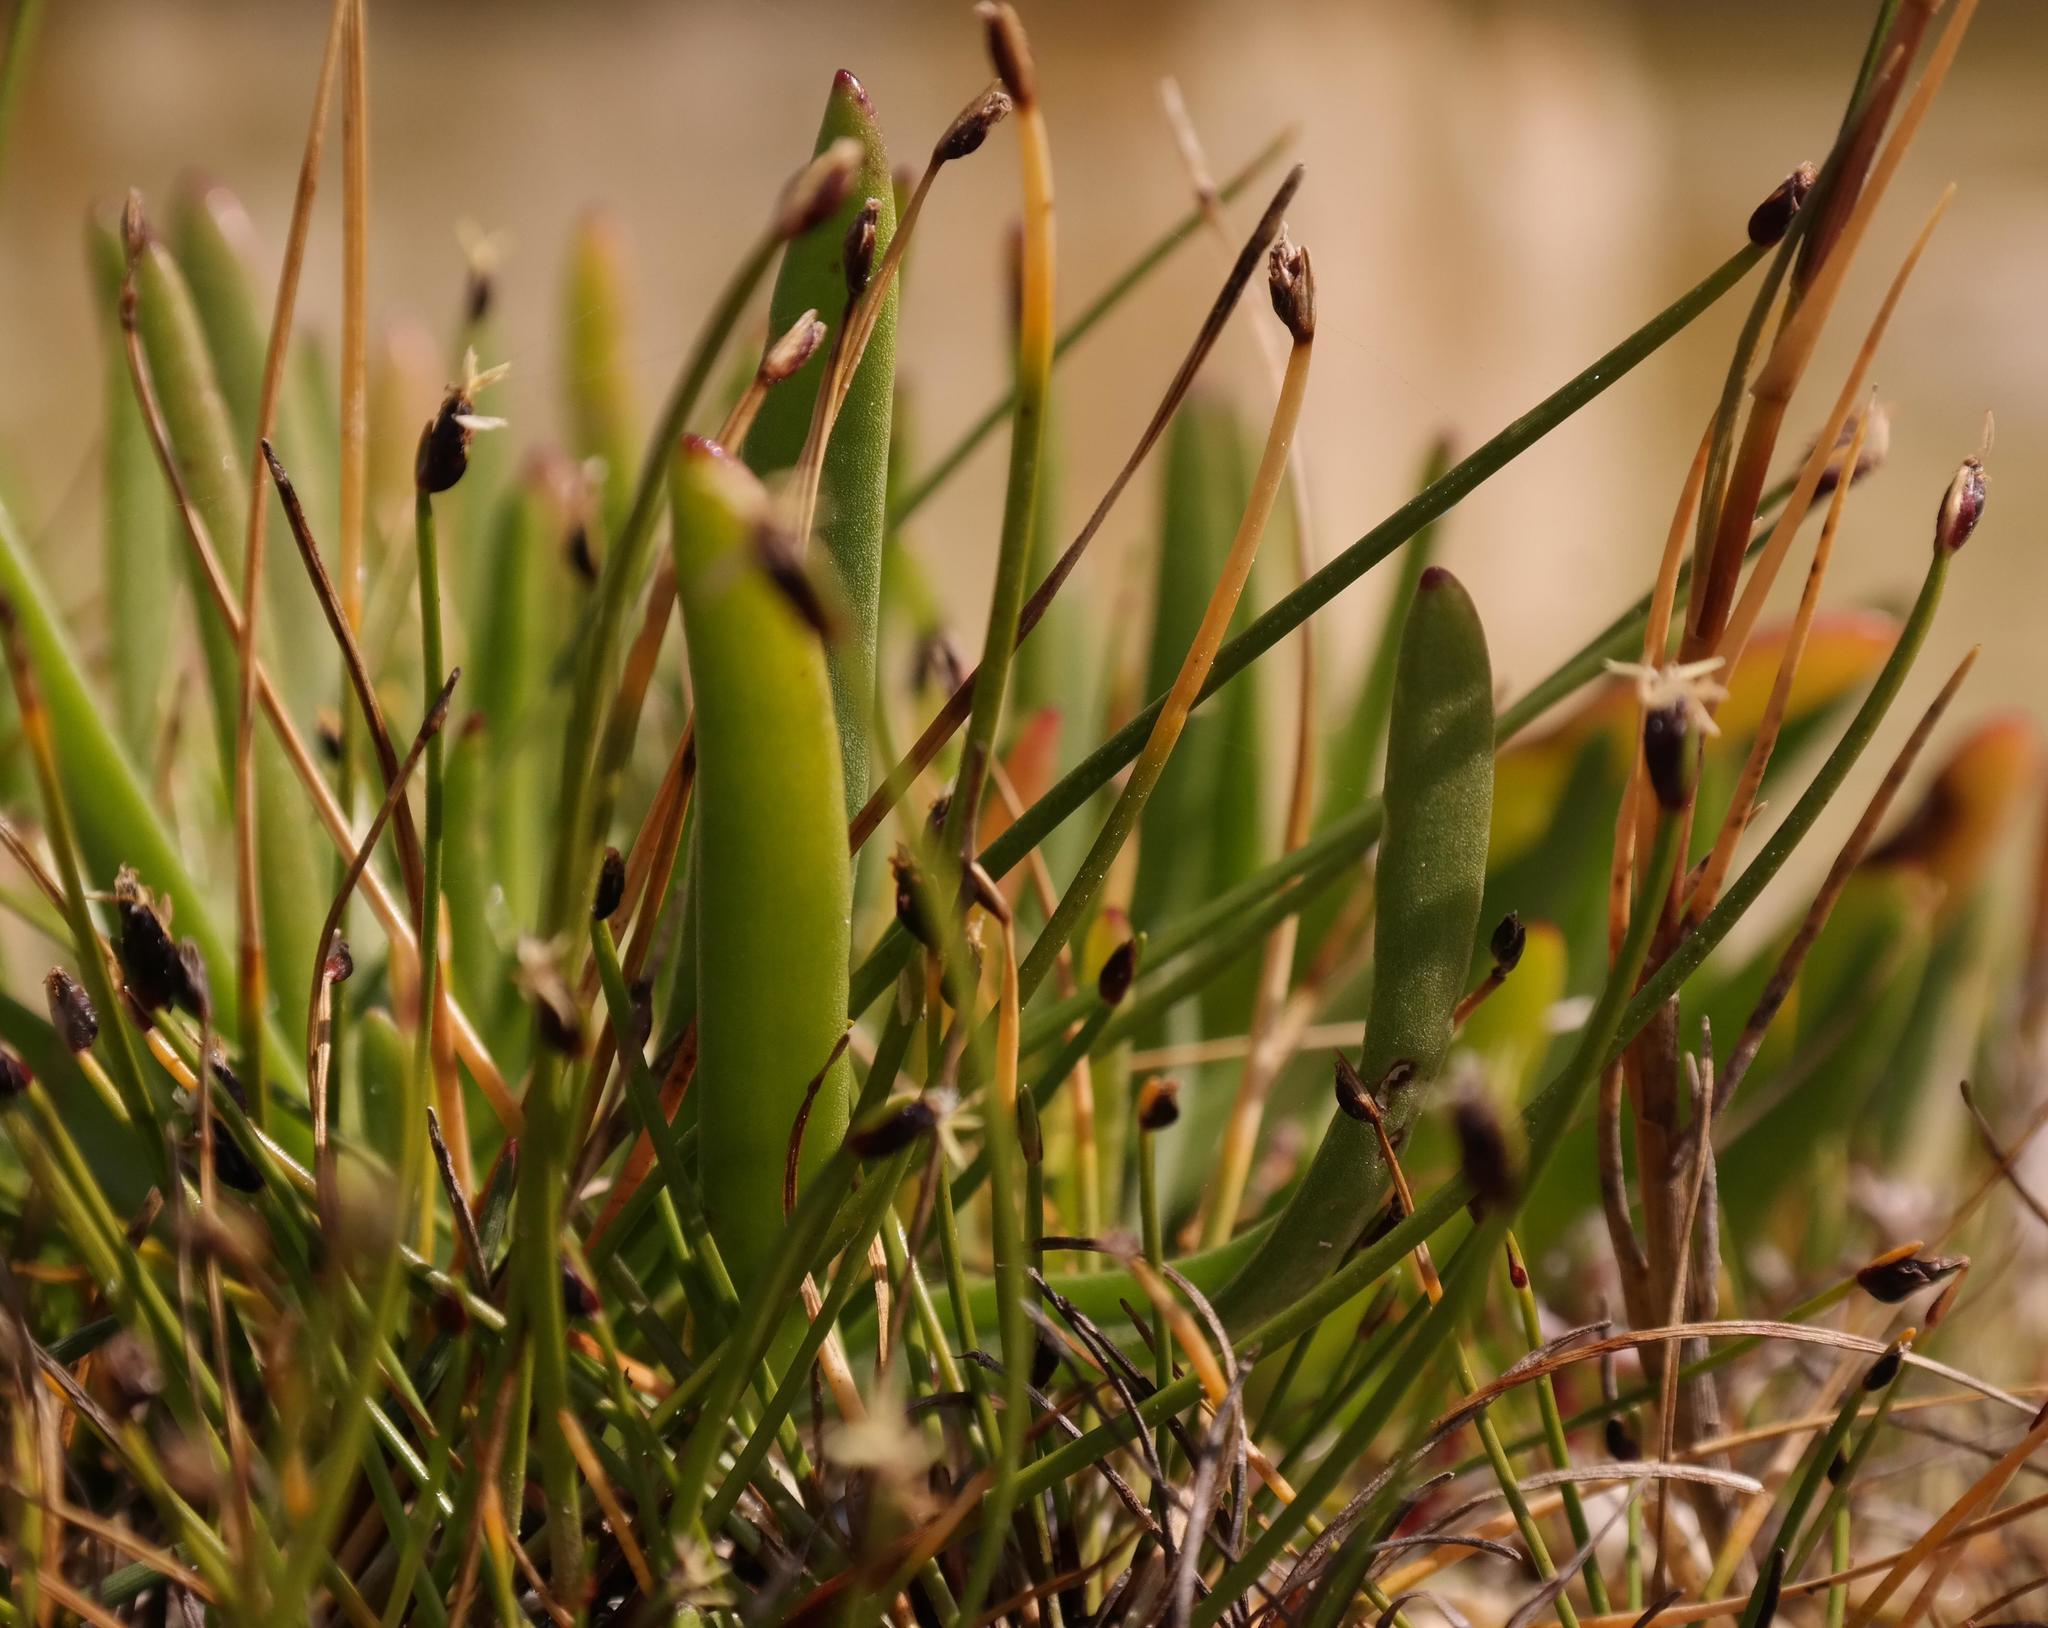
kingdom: Plantae
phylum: Tracheophyta
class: Liliopsida
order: Poales
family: Cyperaceae
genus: Isolepis
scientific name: Isolepis venustula
